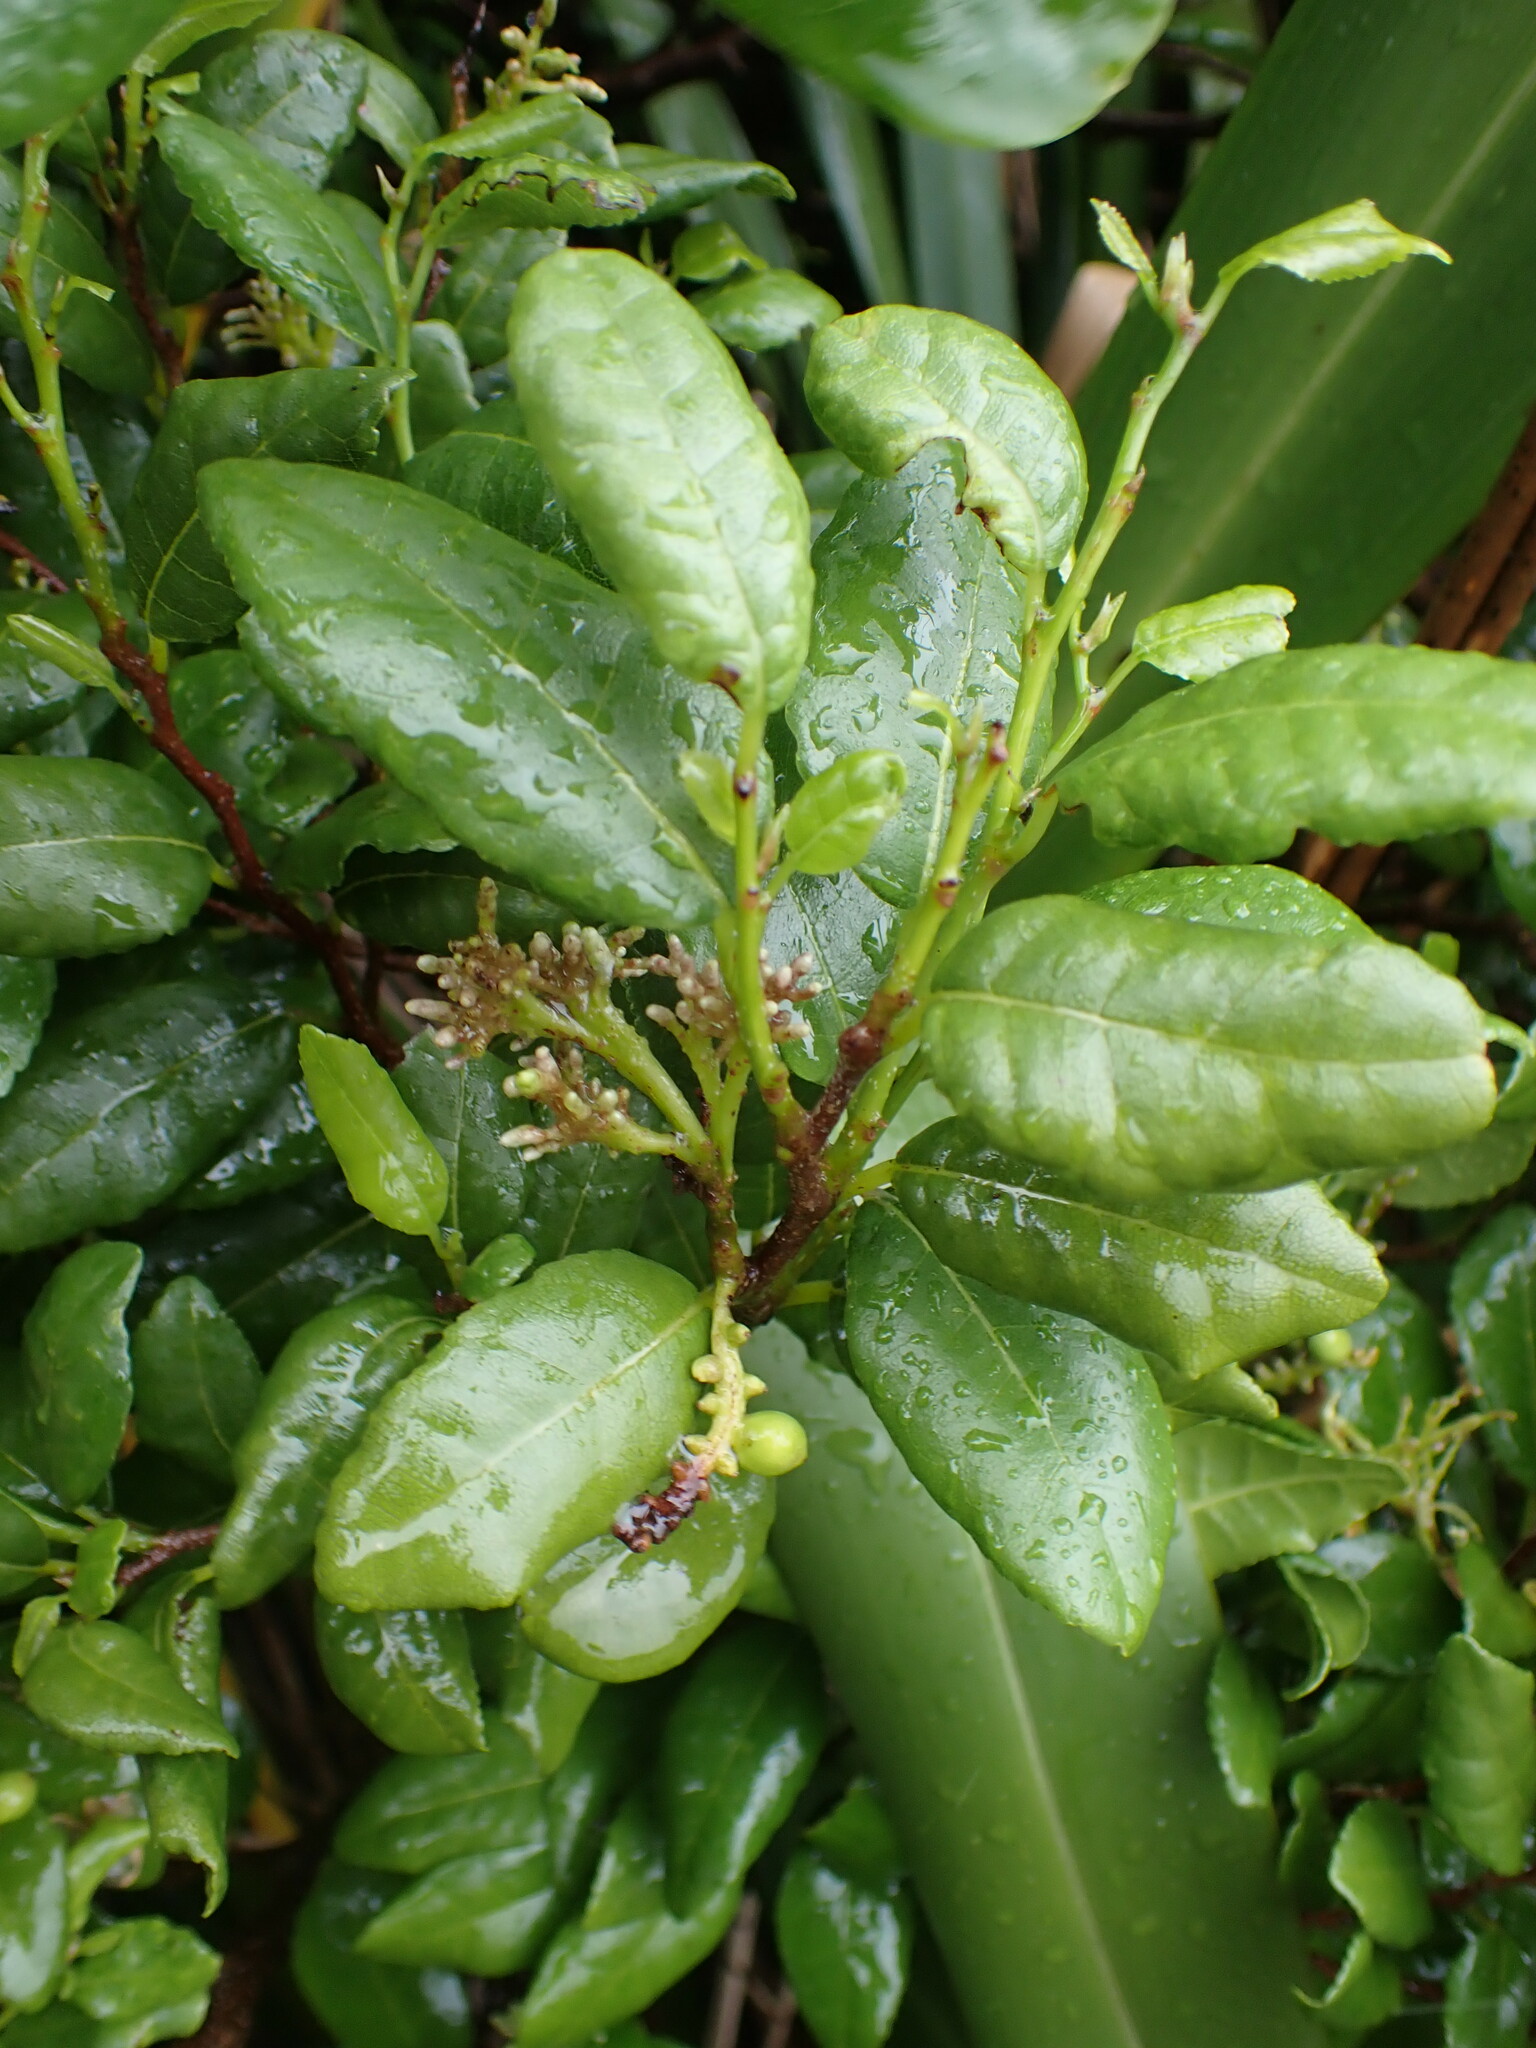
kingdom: Plantae
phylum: Tracheophyta
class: Magnoliopsida
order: Rosales
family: Moraceae
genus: Paratrophis
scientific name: Paratrophis microphylla
